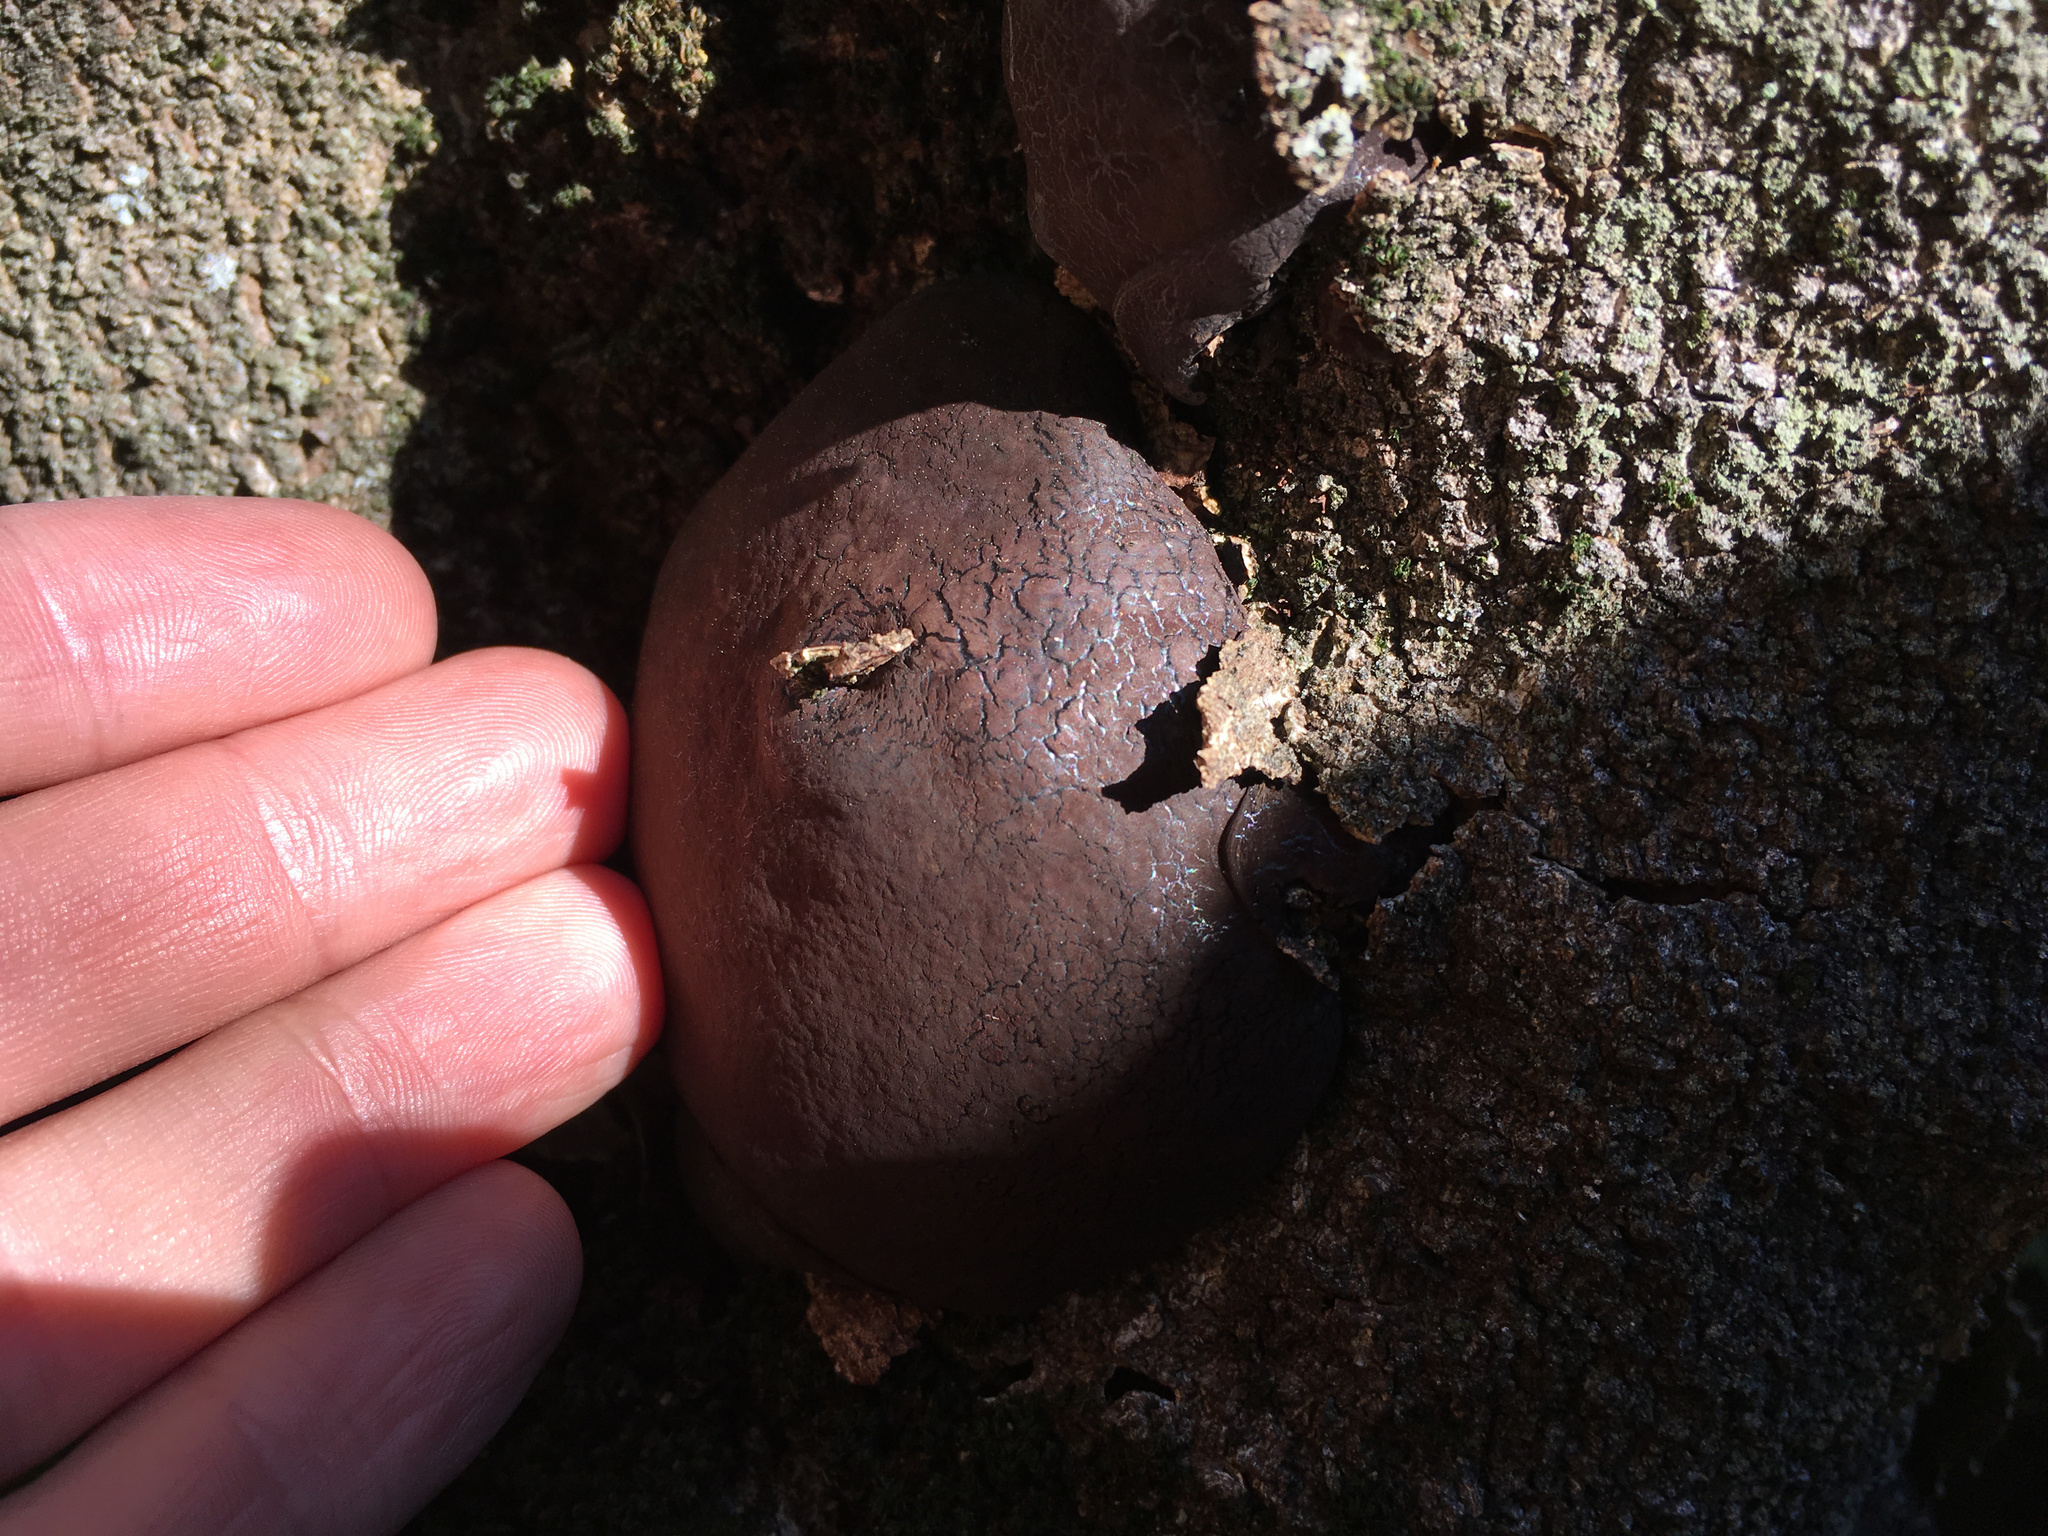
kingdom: Fungi
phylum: Ascomycota
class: Sordariomycetes
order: Xylariales
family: Hypoxylaceae
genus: Daldinia
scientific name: Daldinia
